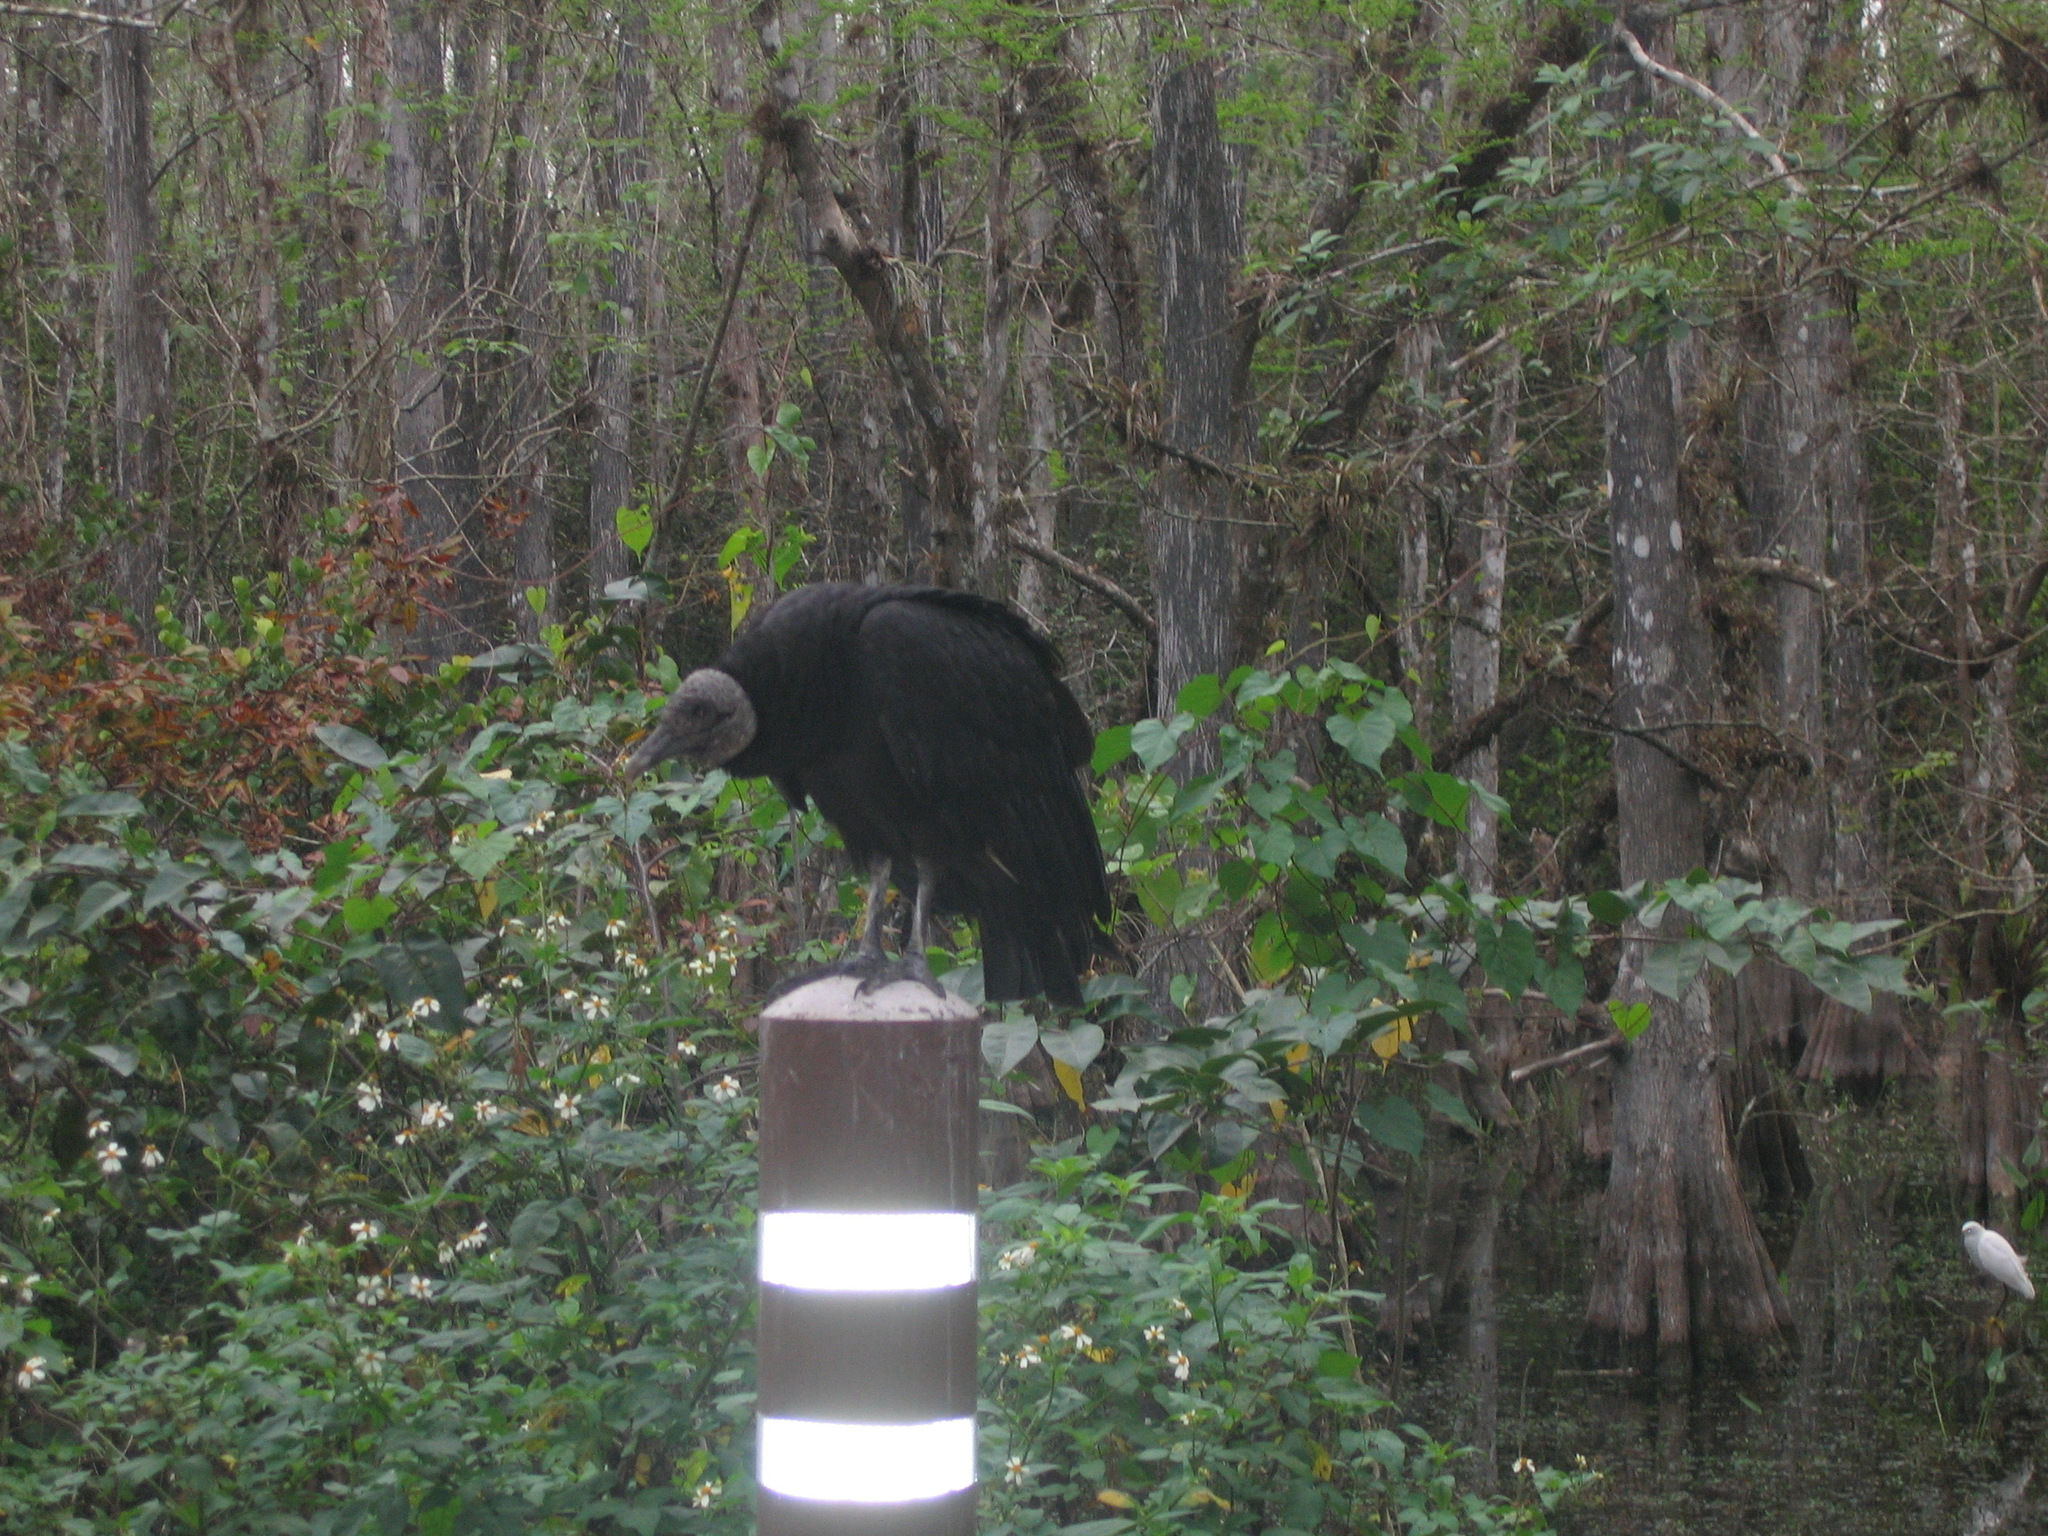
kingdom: Animalia
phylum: Chordata
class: Aves
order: Accipitriformes
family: Cathartidae
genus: Coragyps
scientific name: Coragyps atratus
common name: Black vulture
